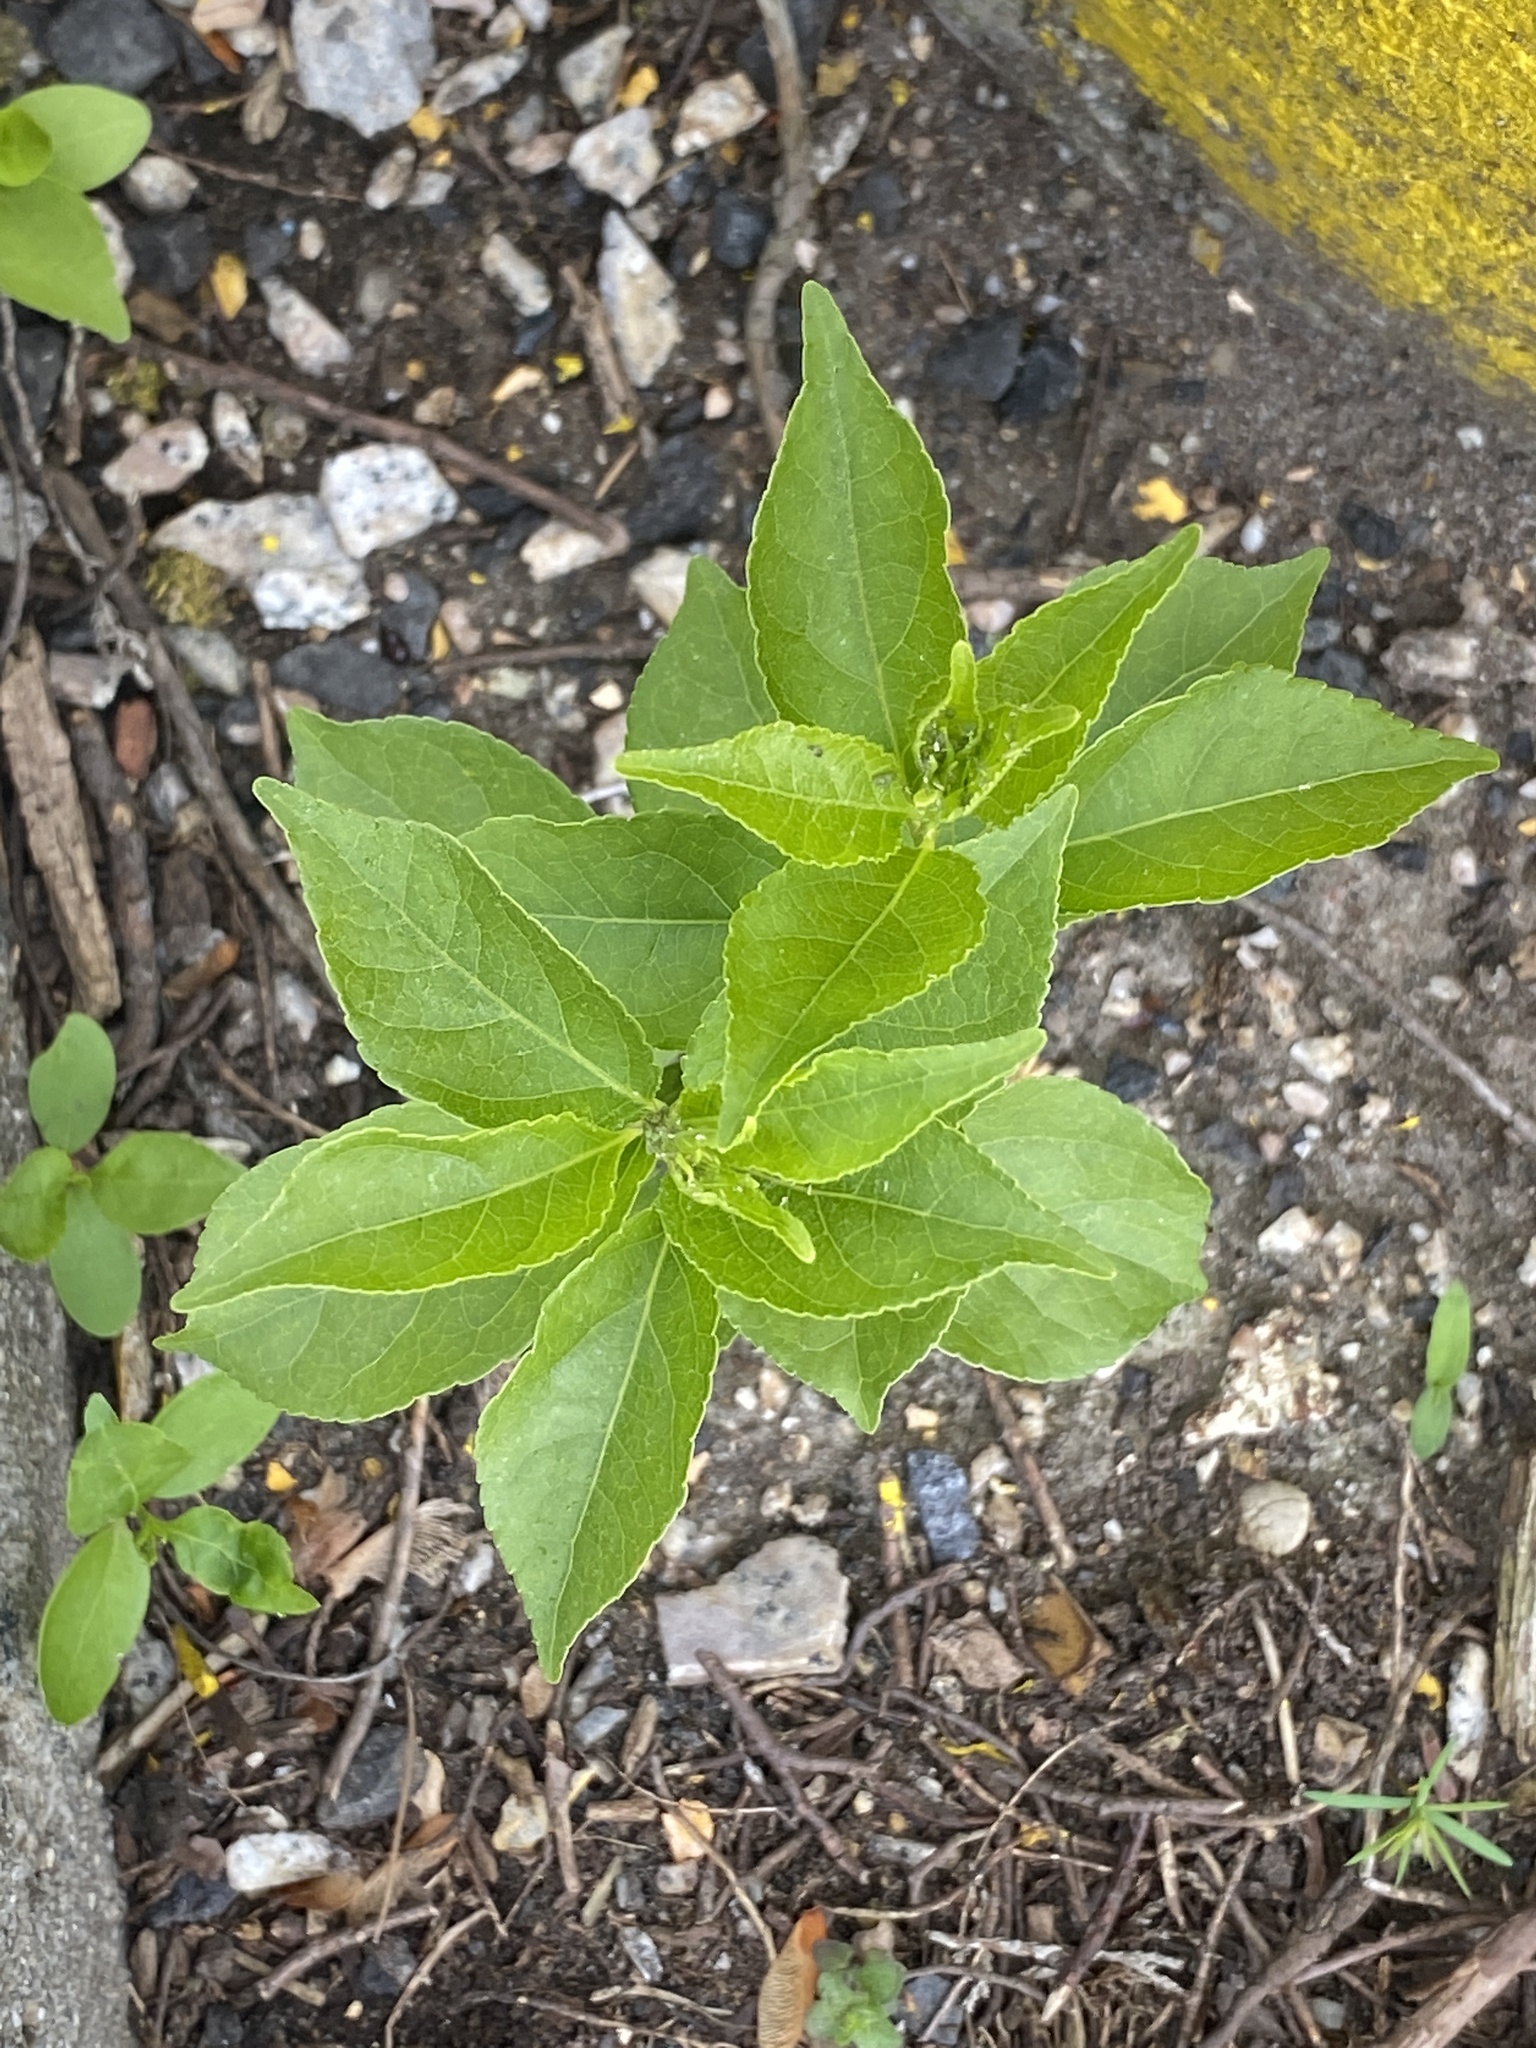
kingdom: Plantae
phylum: Tracheophyta
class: Magnoliopsida
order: Celastrales
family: Celastraceae
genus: Celastrus
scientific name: Celastrus orbiculatus
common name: Oriental bittersweet
